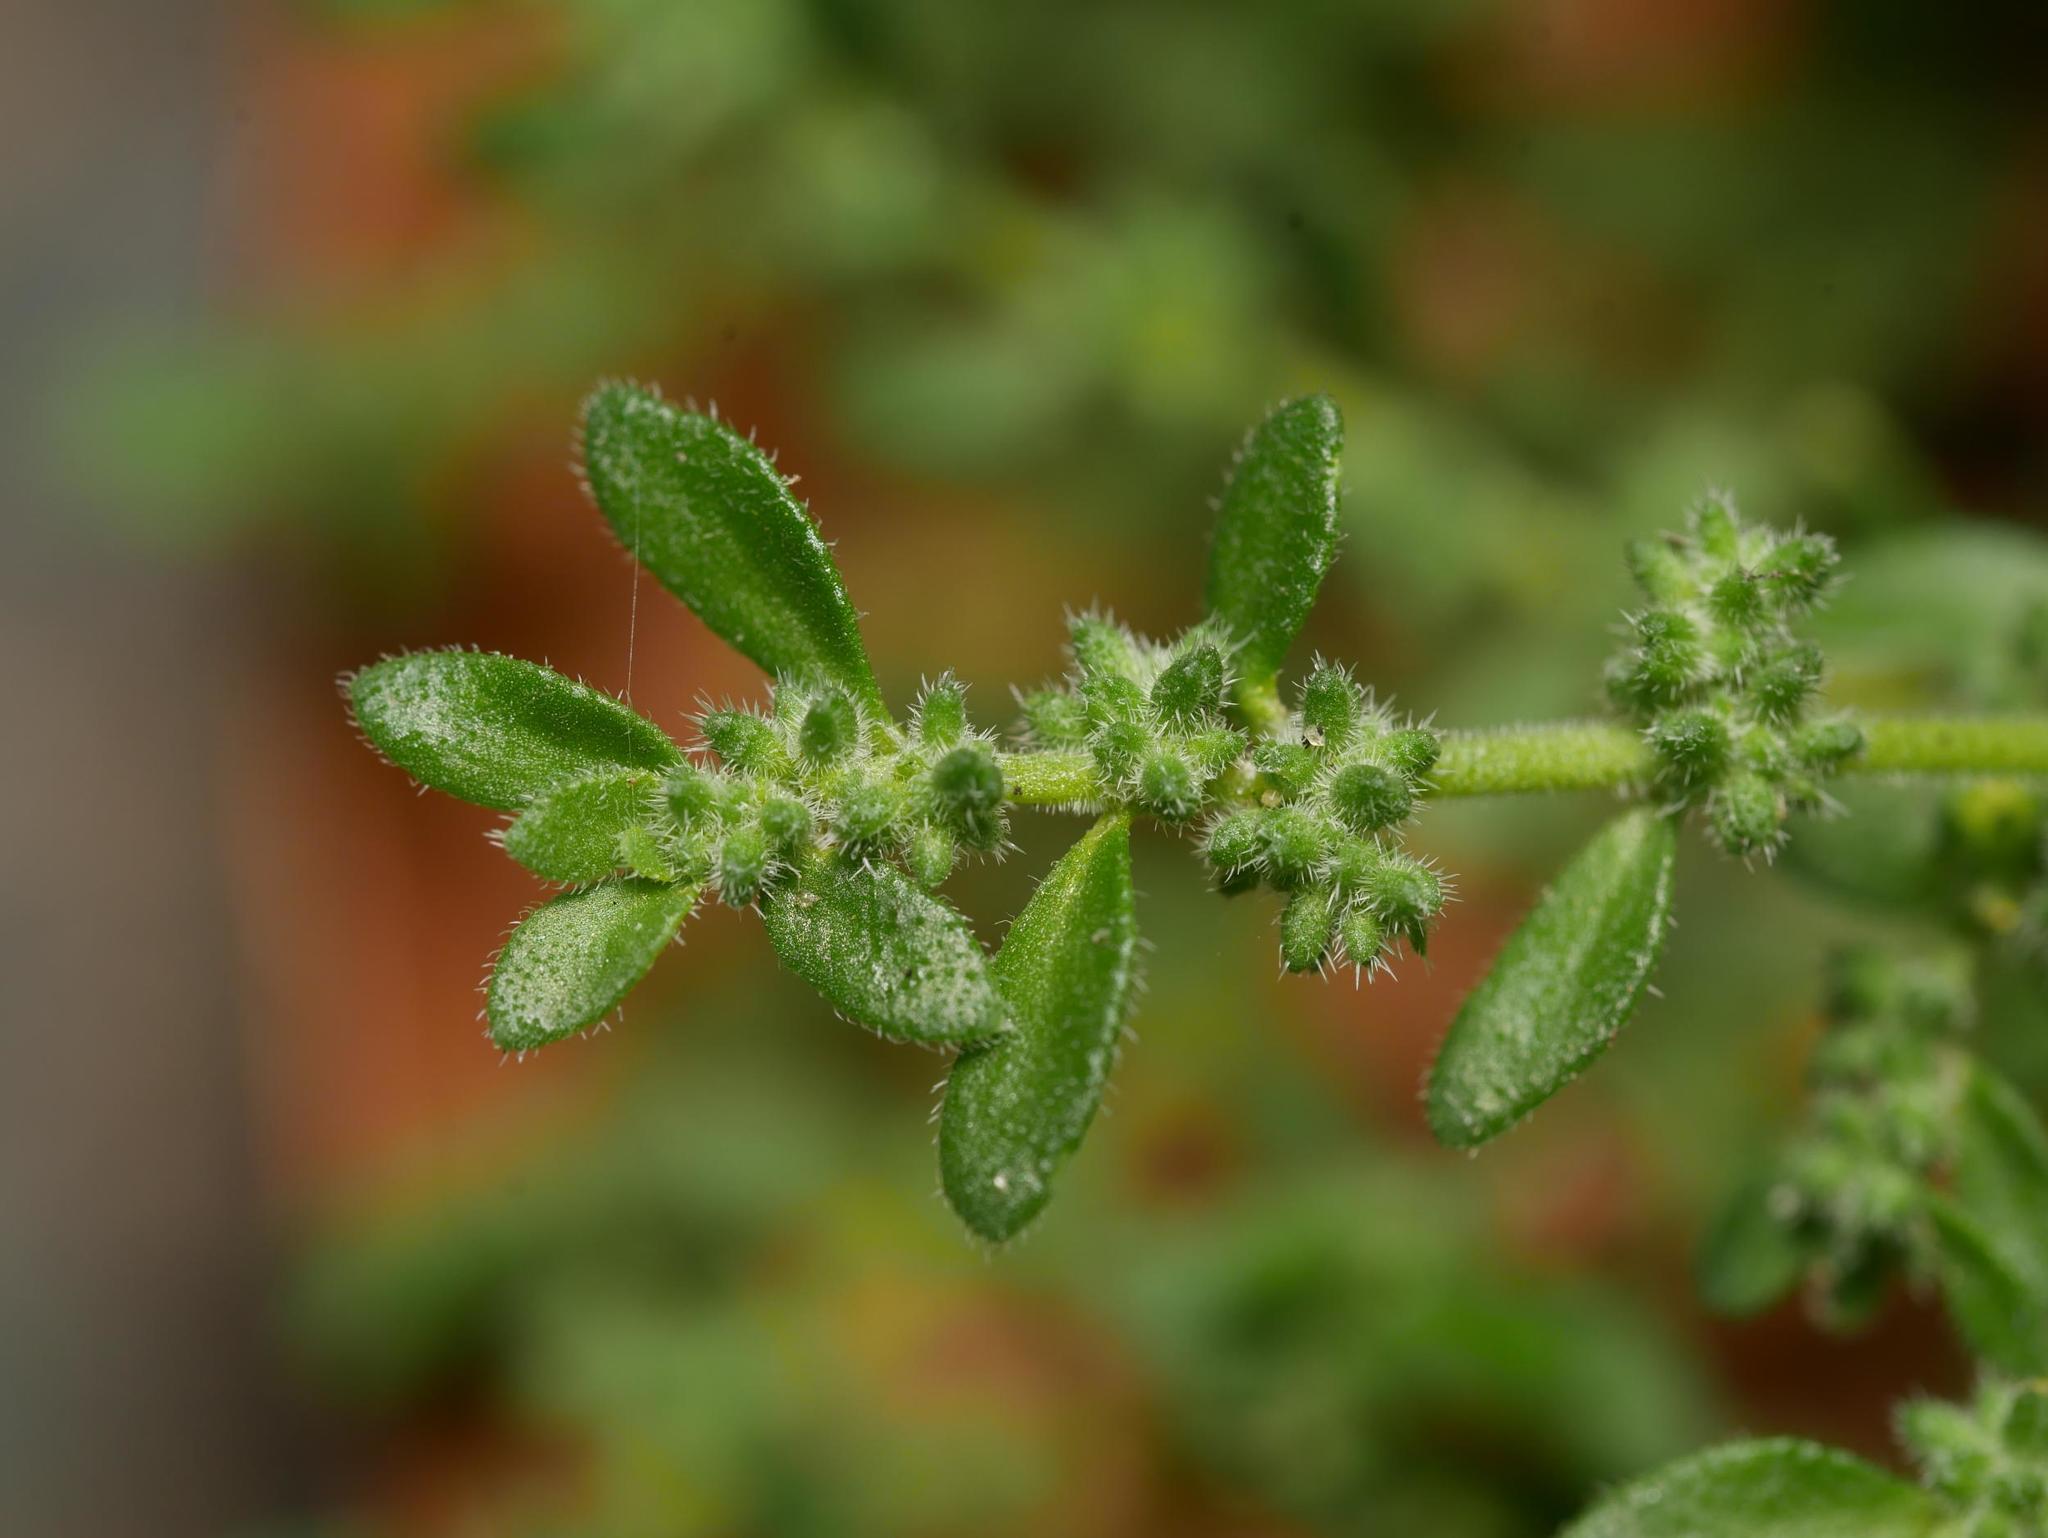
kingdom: Plantae
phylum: Tracheophyta
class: Magnoliopsida
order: Caryophyllales
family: Caryophyllaceae
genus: Herniaria
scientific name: Herniaria hirsuta
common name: Hairy rupturewort
